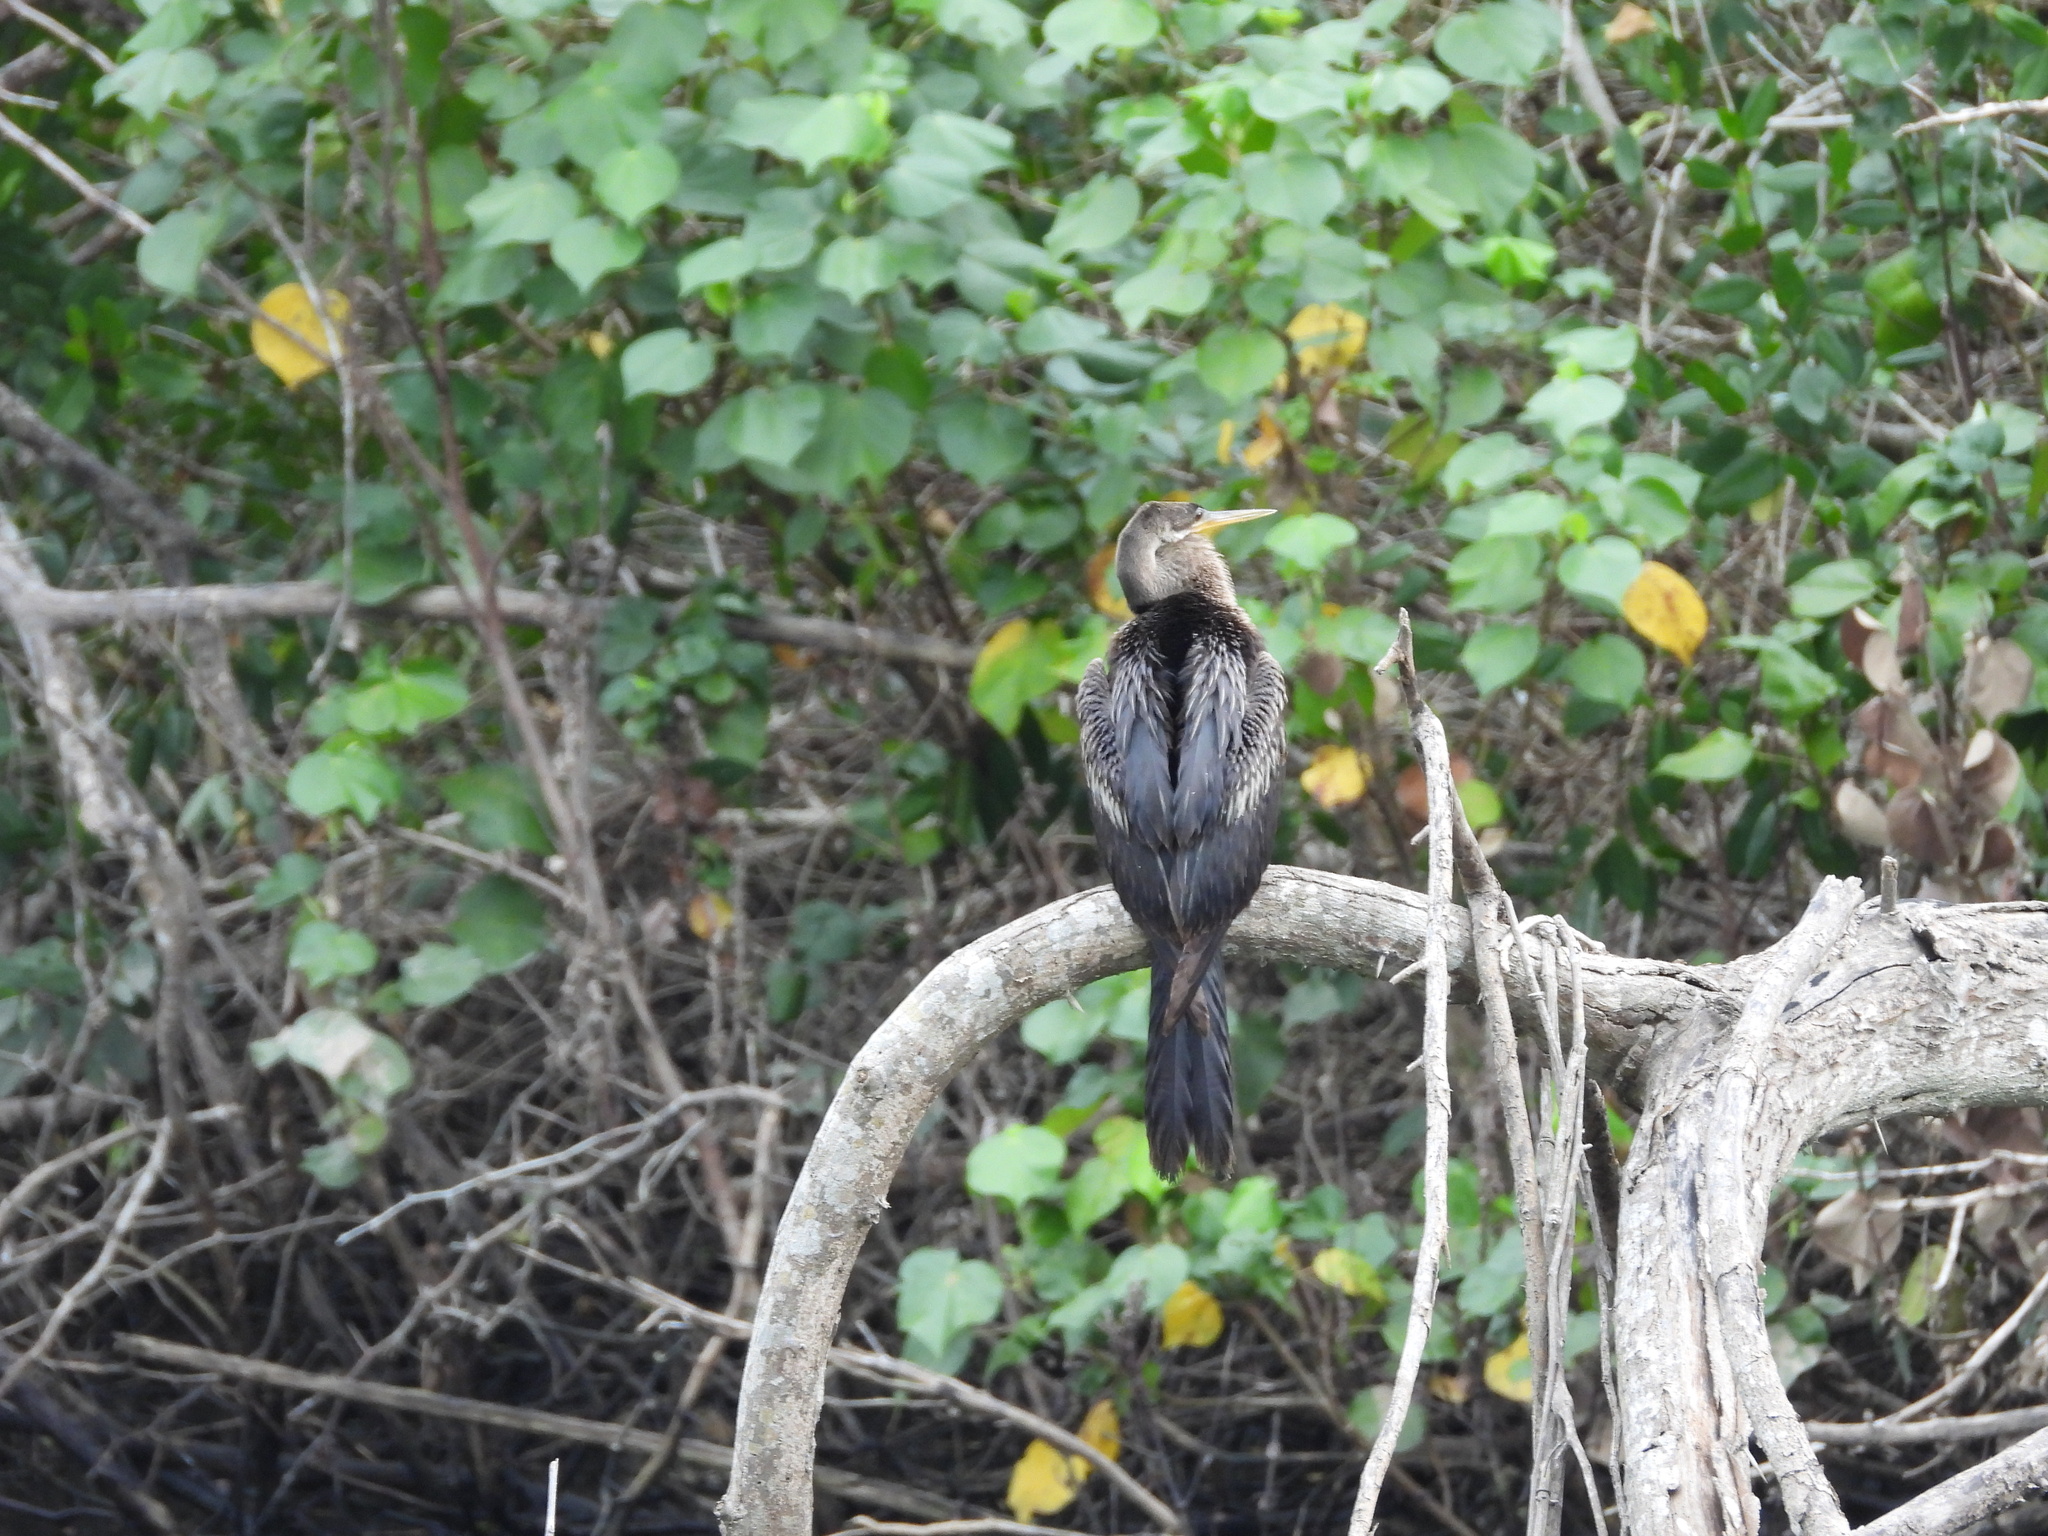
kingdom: Animalia
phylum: Chordata
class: Aves
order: Suliformes
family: Anhingidae
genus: Anhinga
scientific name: Anhinga anhinga
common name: Anhinga
